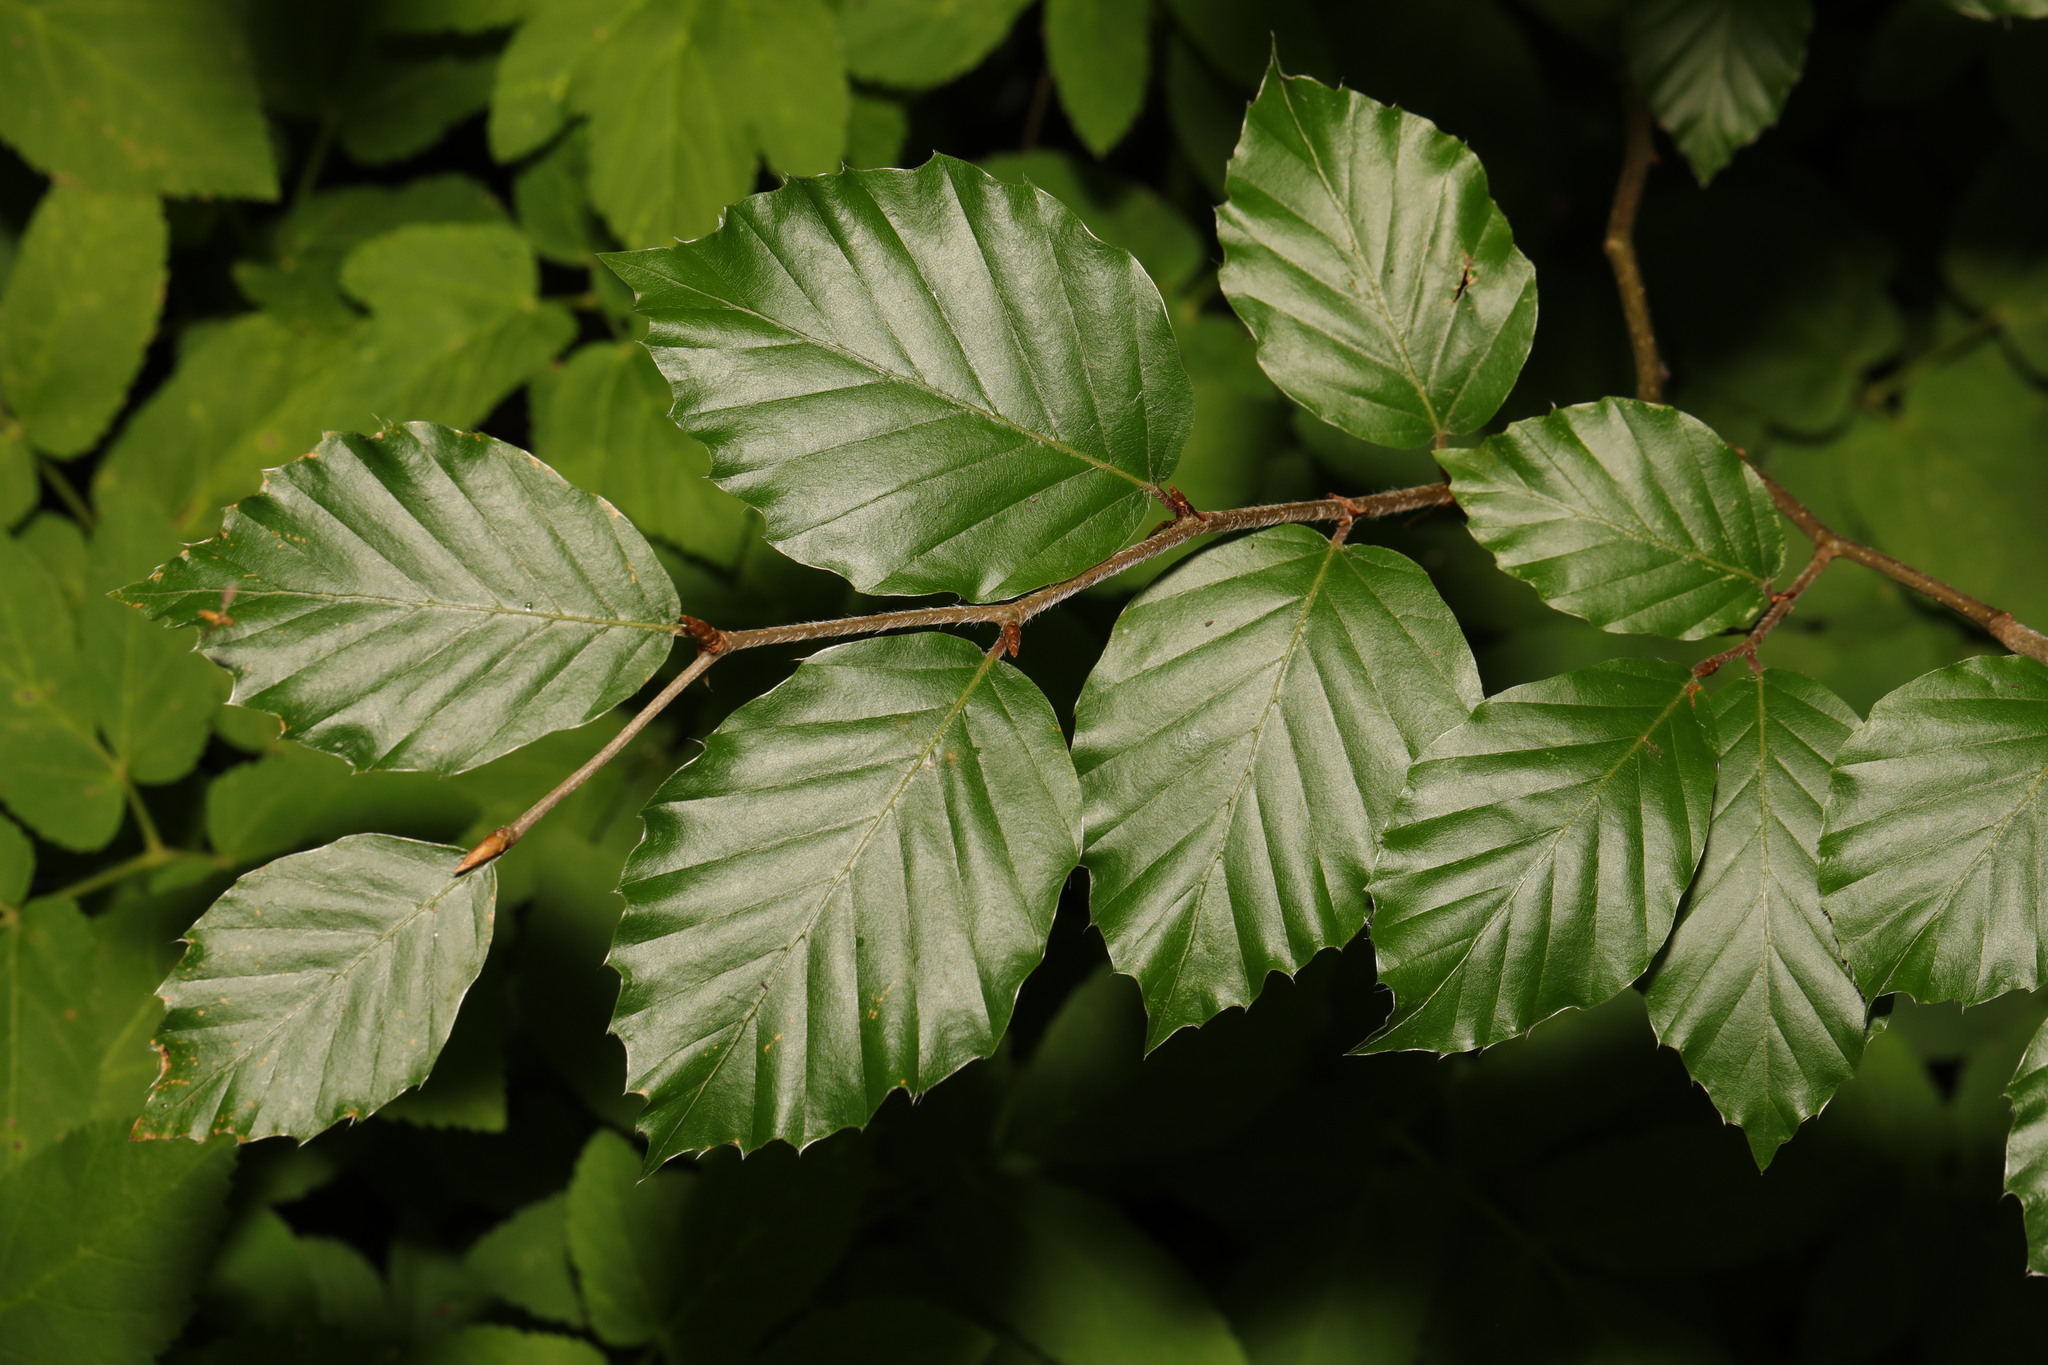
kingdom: Plantae
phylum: Tracheophyta
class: Magnoliopsida
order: Fagales
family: Fagaceae
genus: Fagus
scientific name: Fagus sylvatica
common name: Beech
